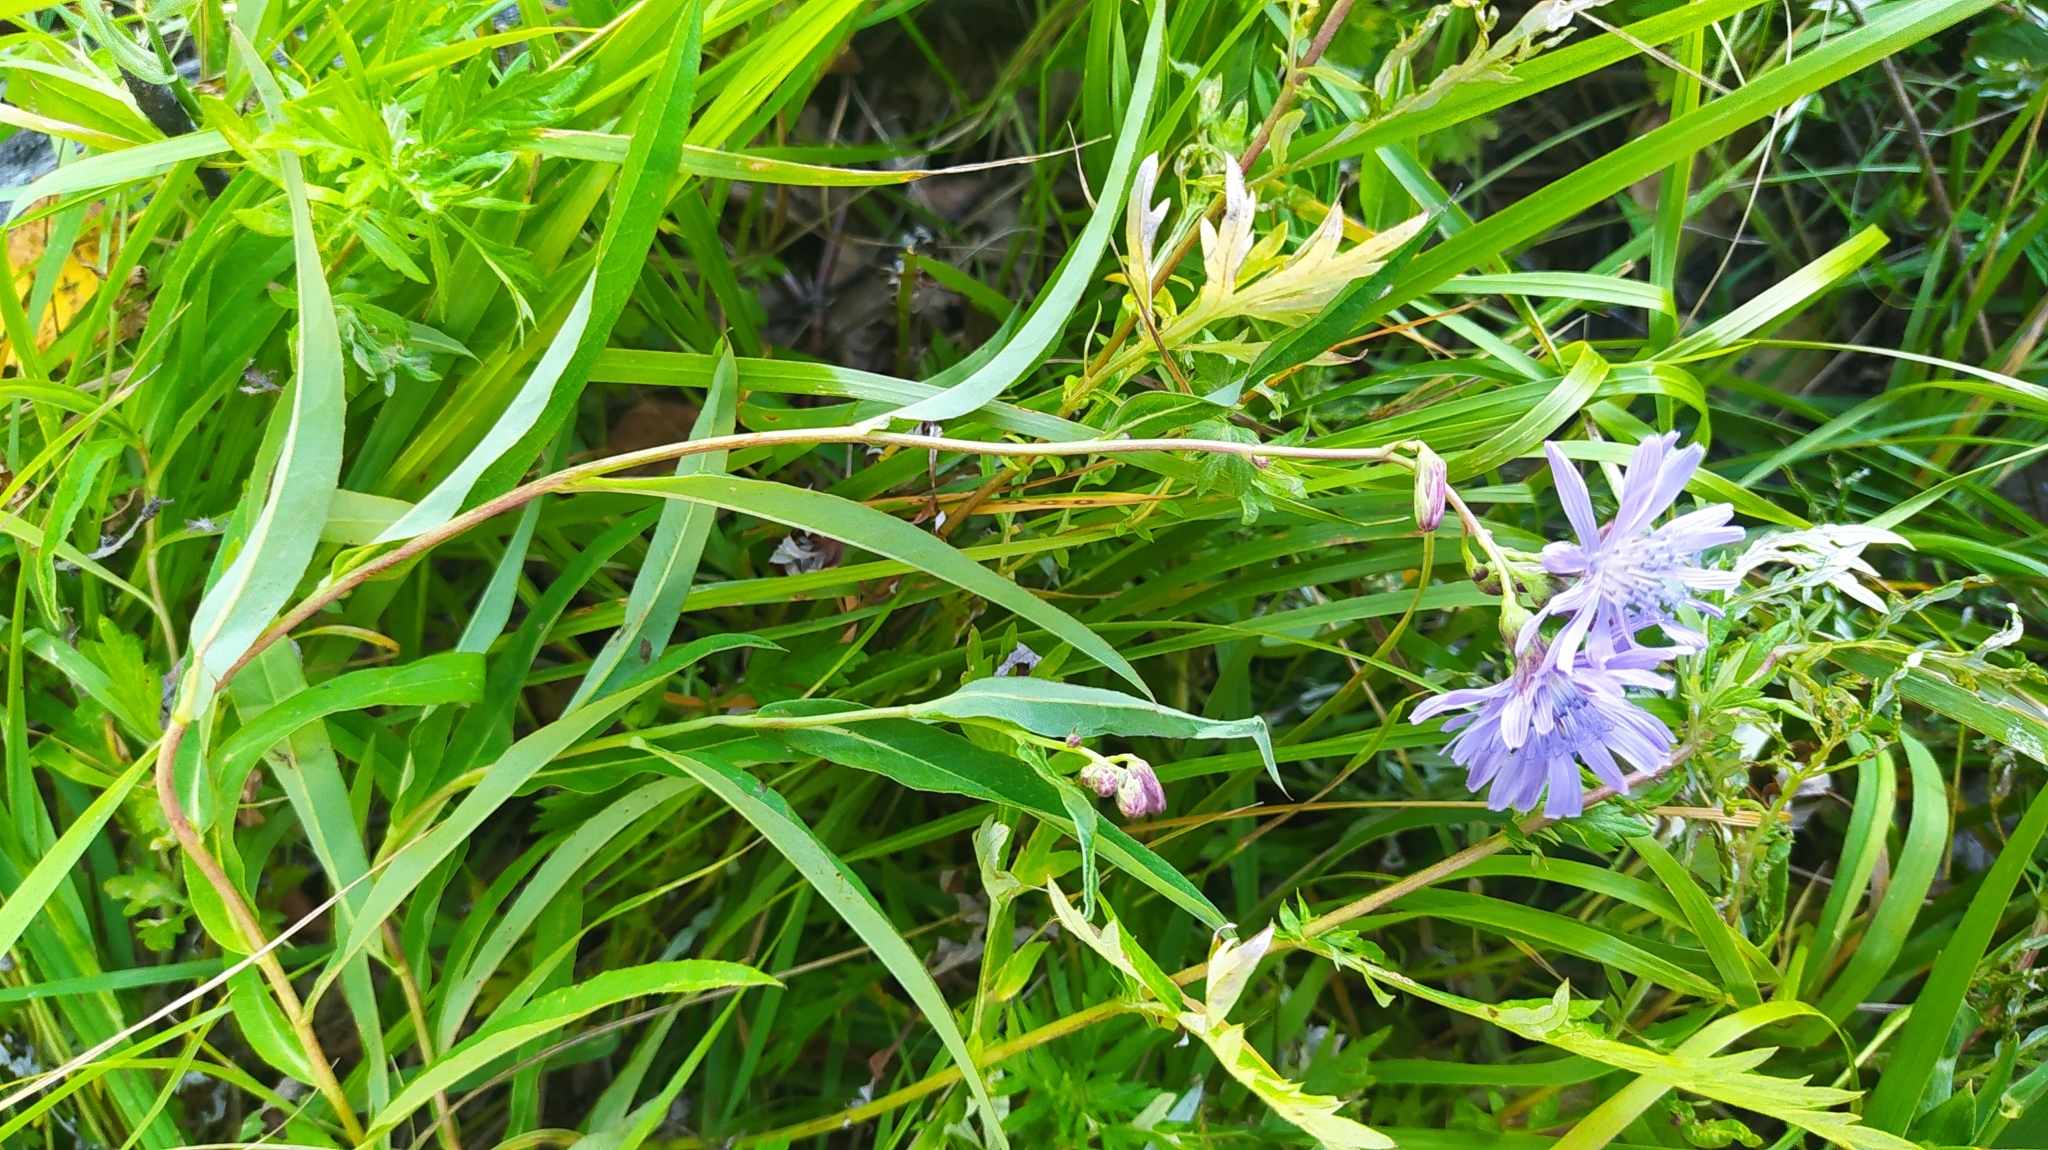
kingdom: Plantae
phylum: Tracheophyta
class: Magnoliopsida
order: Asterales
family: Asteraceae
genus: Lactuca
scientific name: Lactuca sibirica
